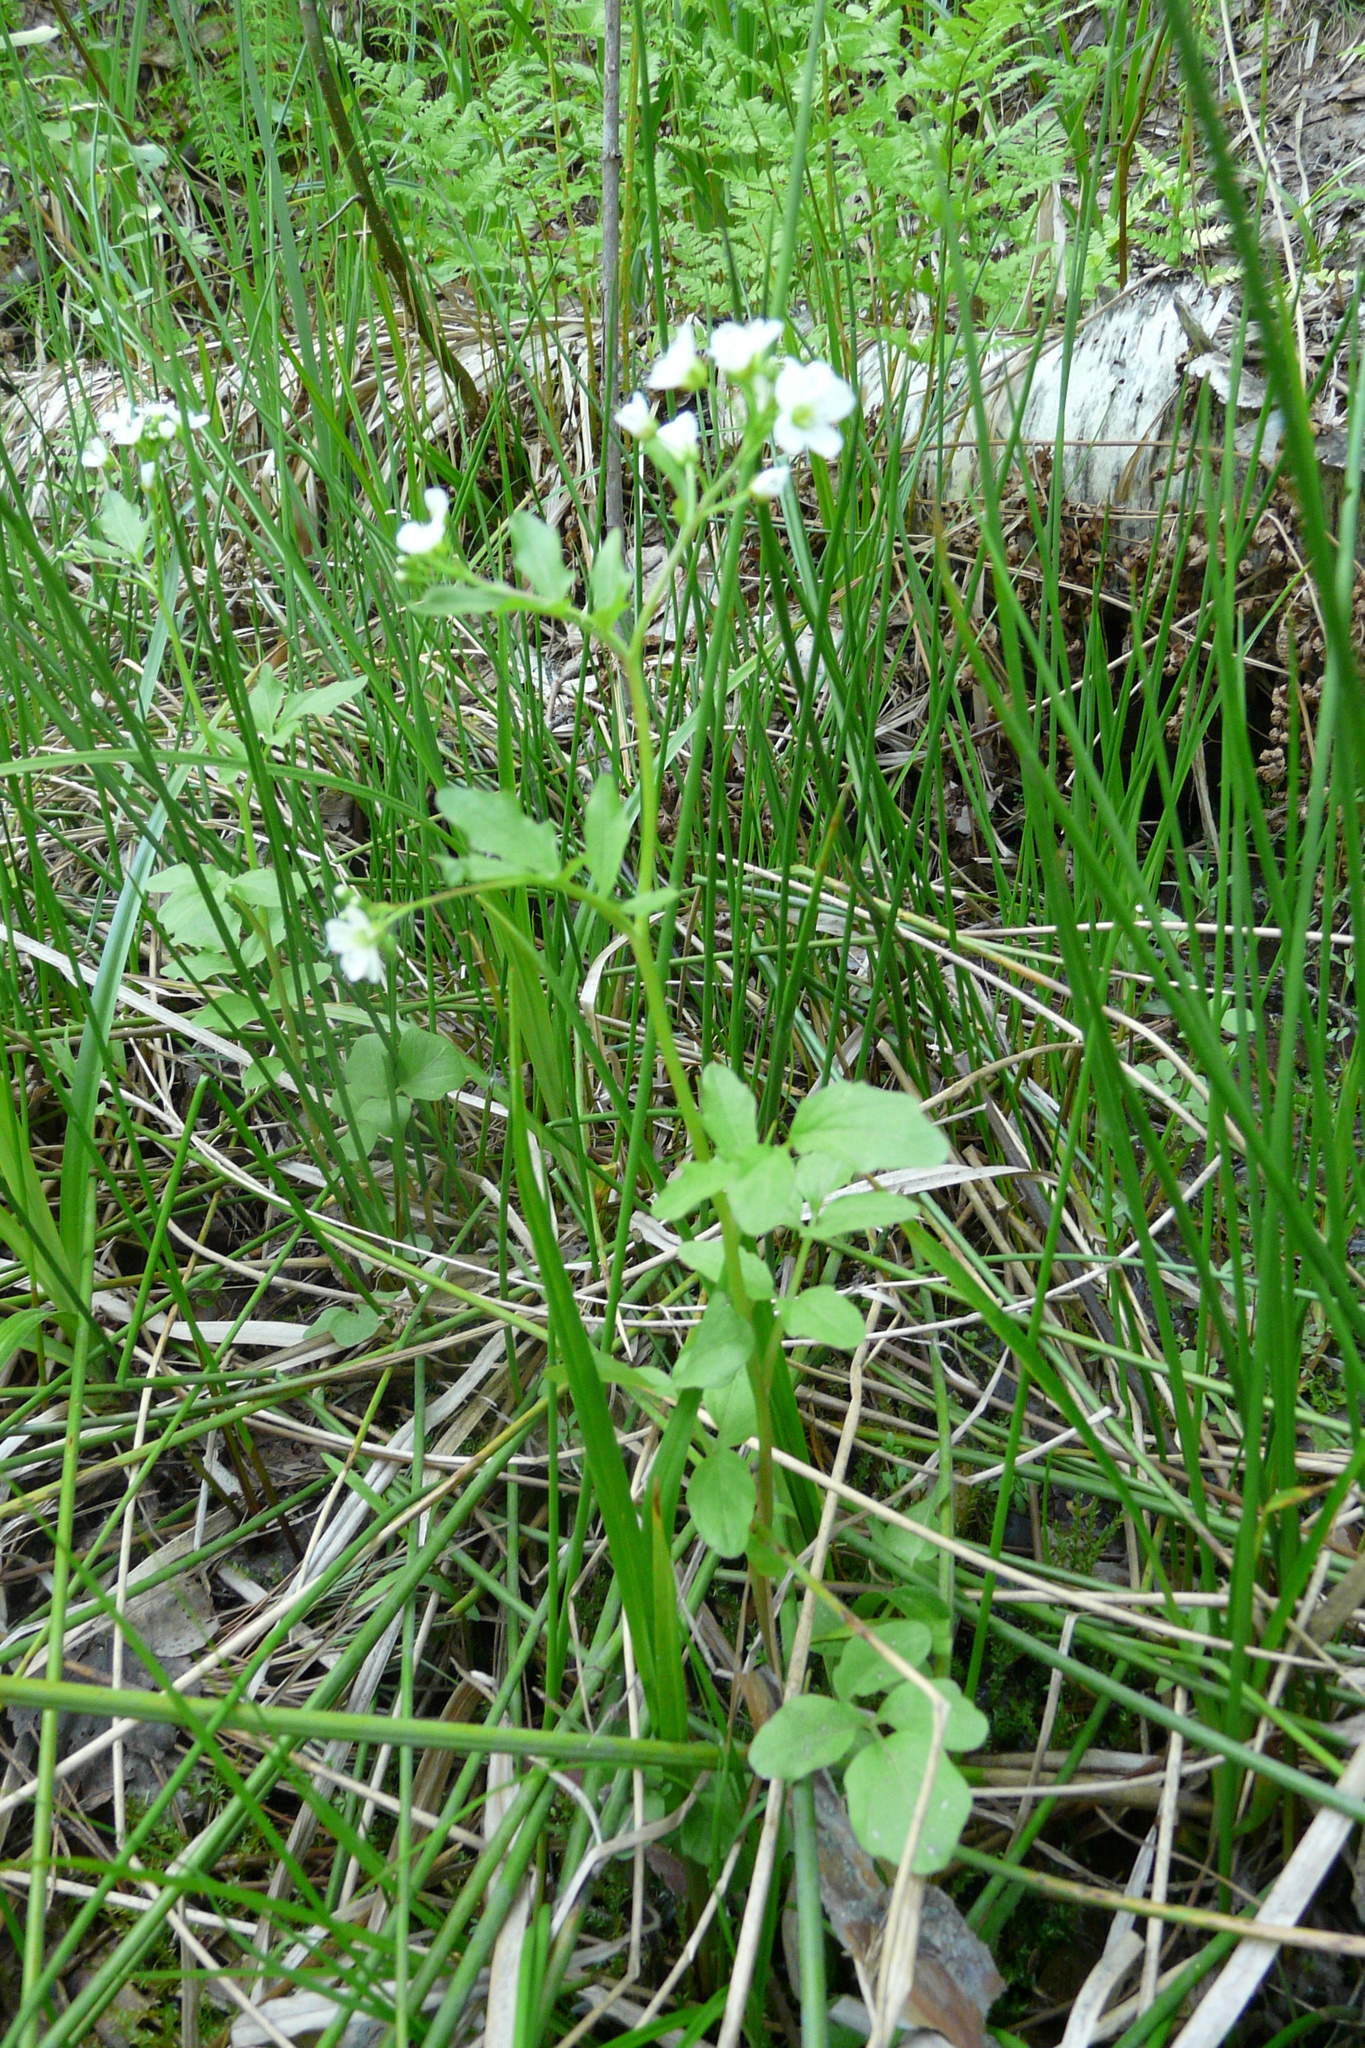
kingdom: Plantae
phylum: Tracheophyta
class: Magnoliopsida
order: Brassicales
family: Brassicaceae
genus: Cardamine
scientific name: Cardamine amara
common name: Large bitter-cress
